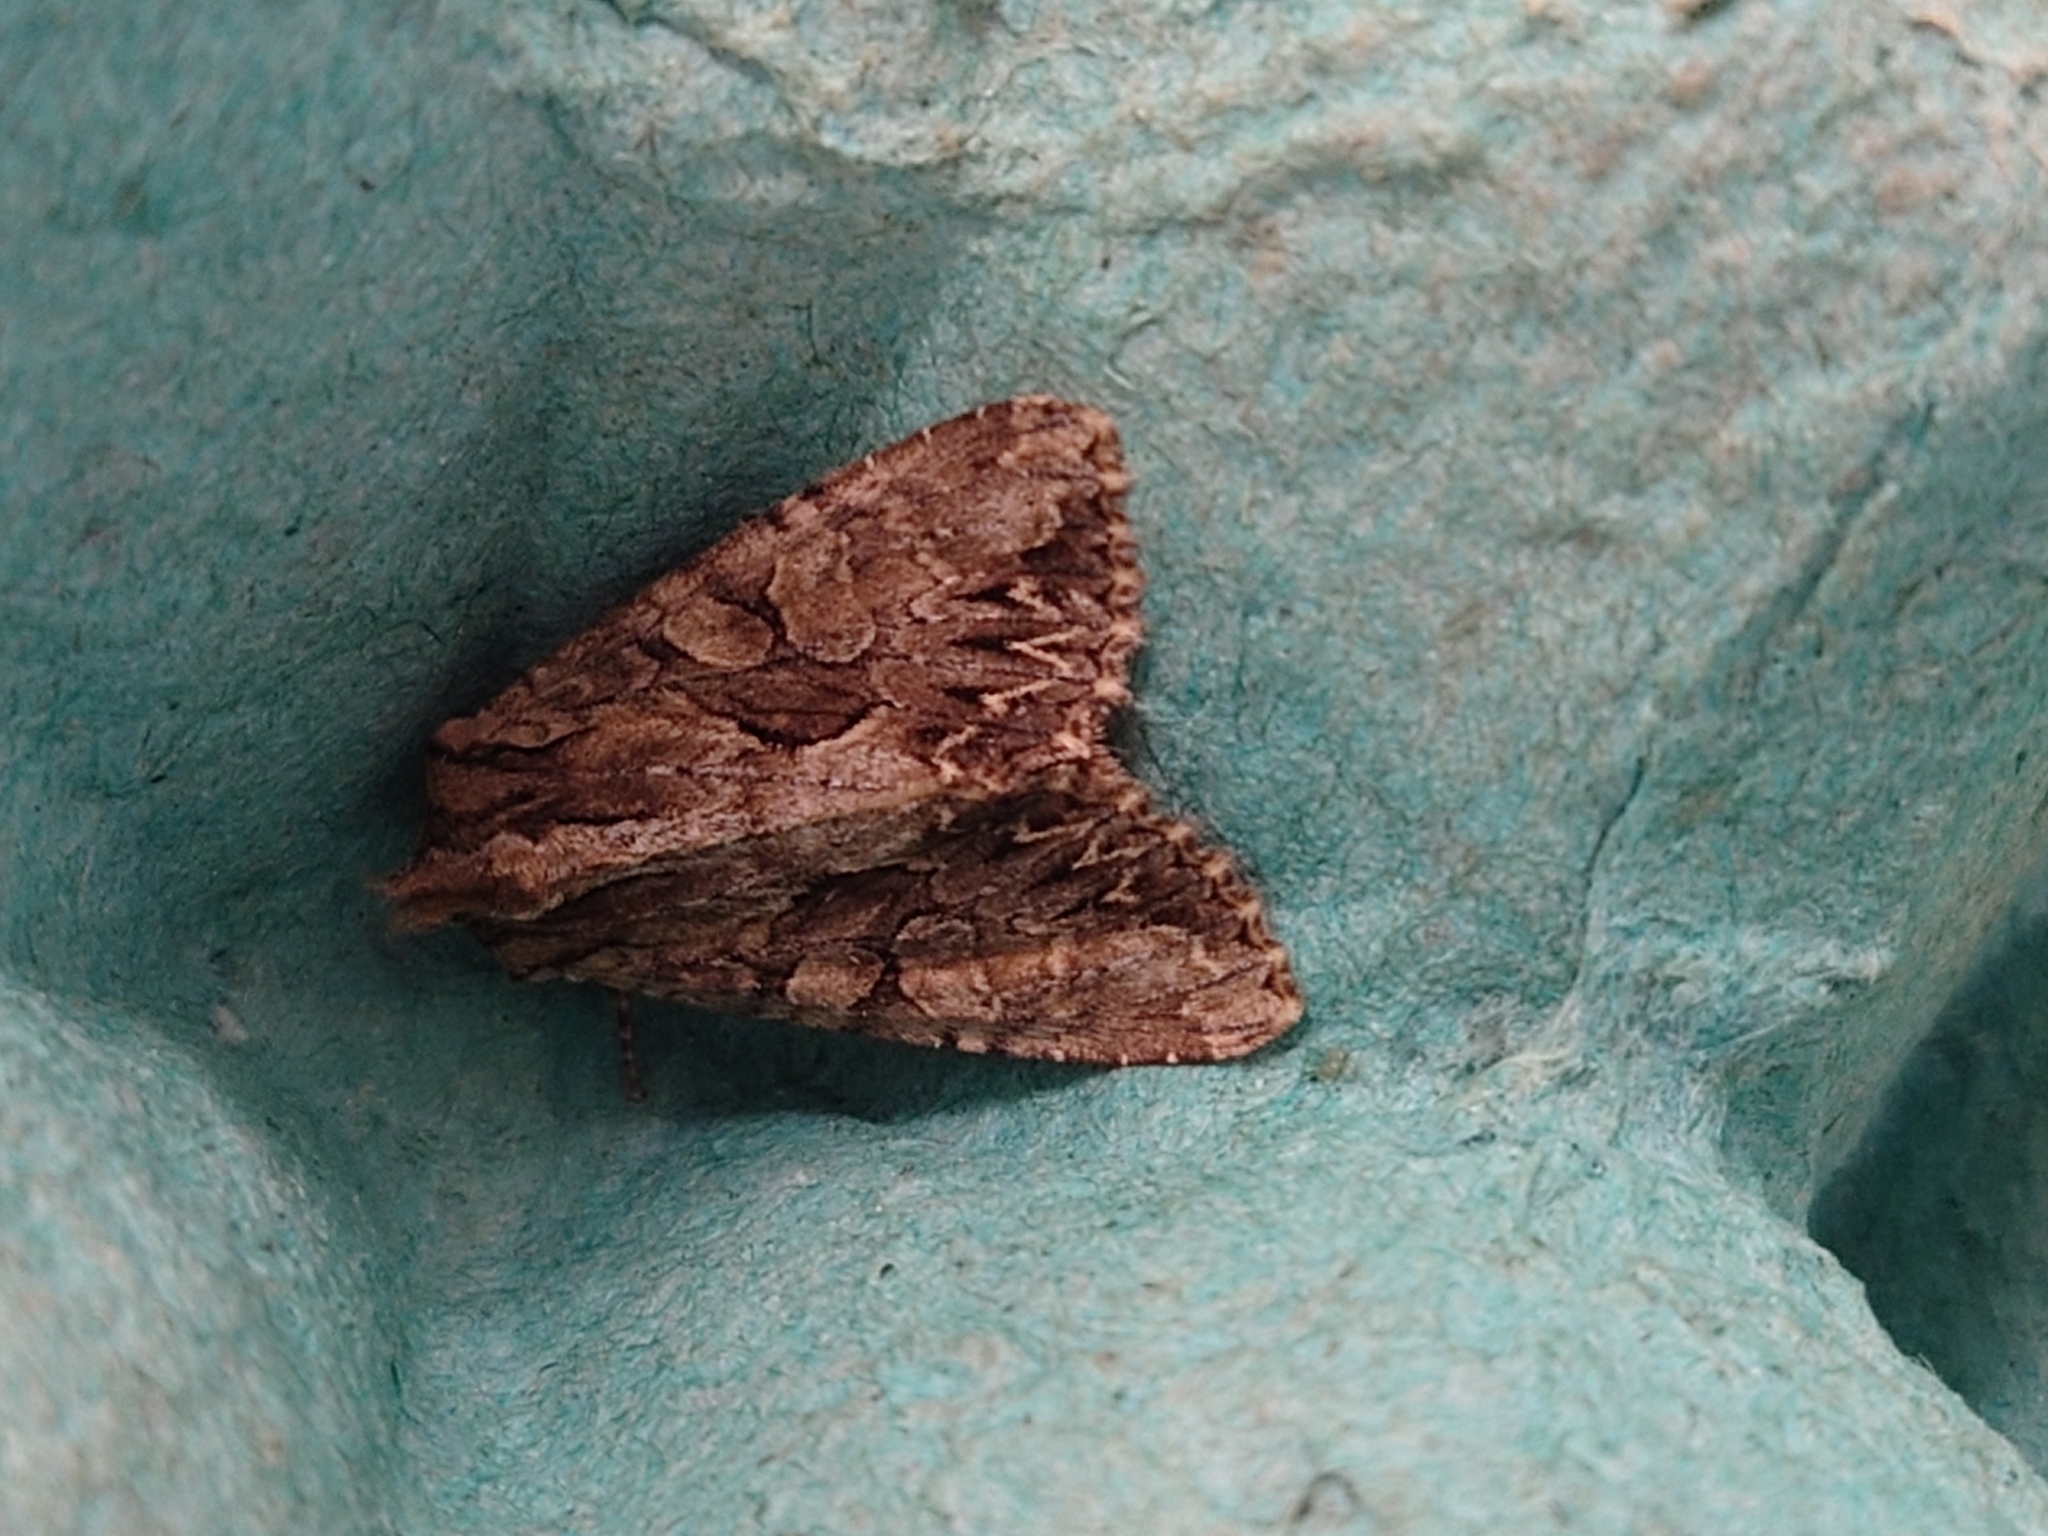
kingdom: Animalia
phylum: Arthropoda
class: Insecta
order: Lepidoptera
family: Noctuidae
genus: Apamea
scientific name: Apamea monoglypha
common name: Dark arches
